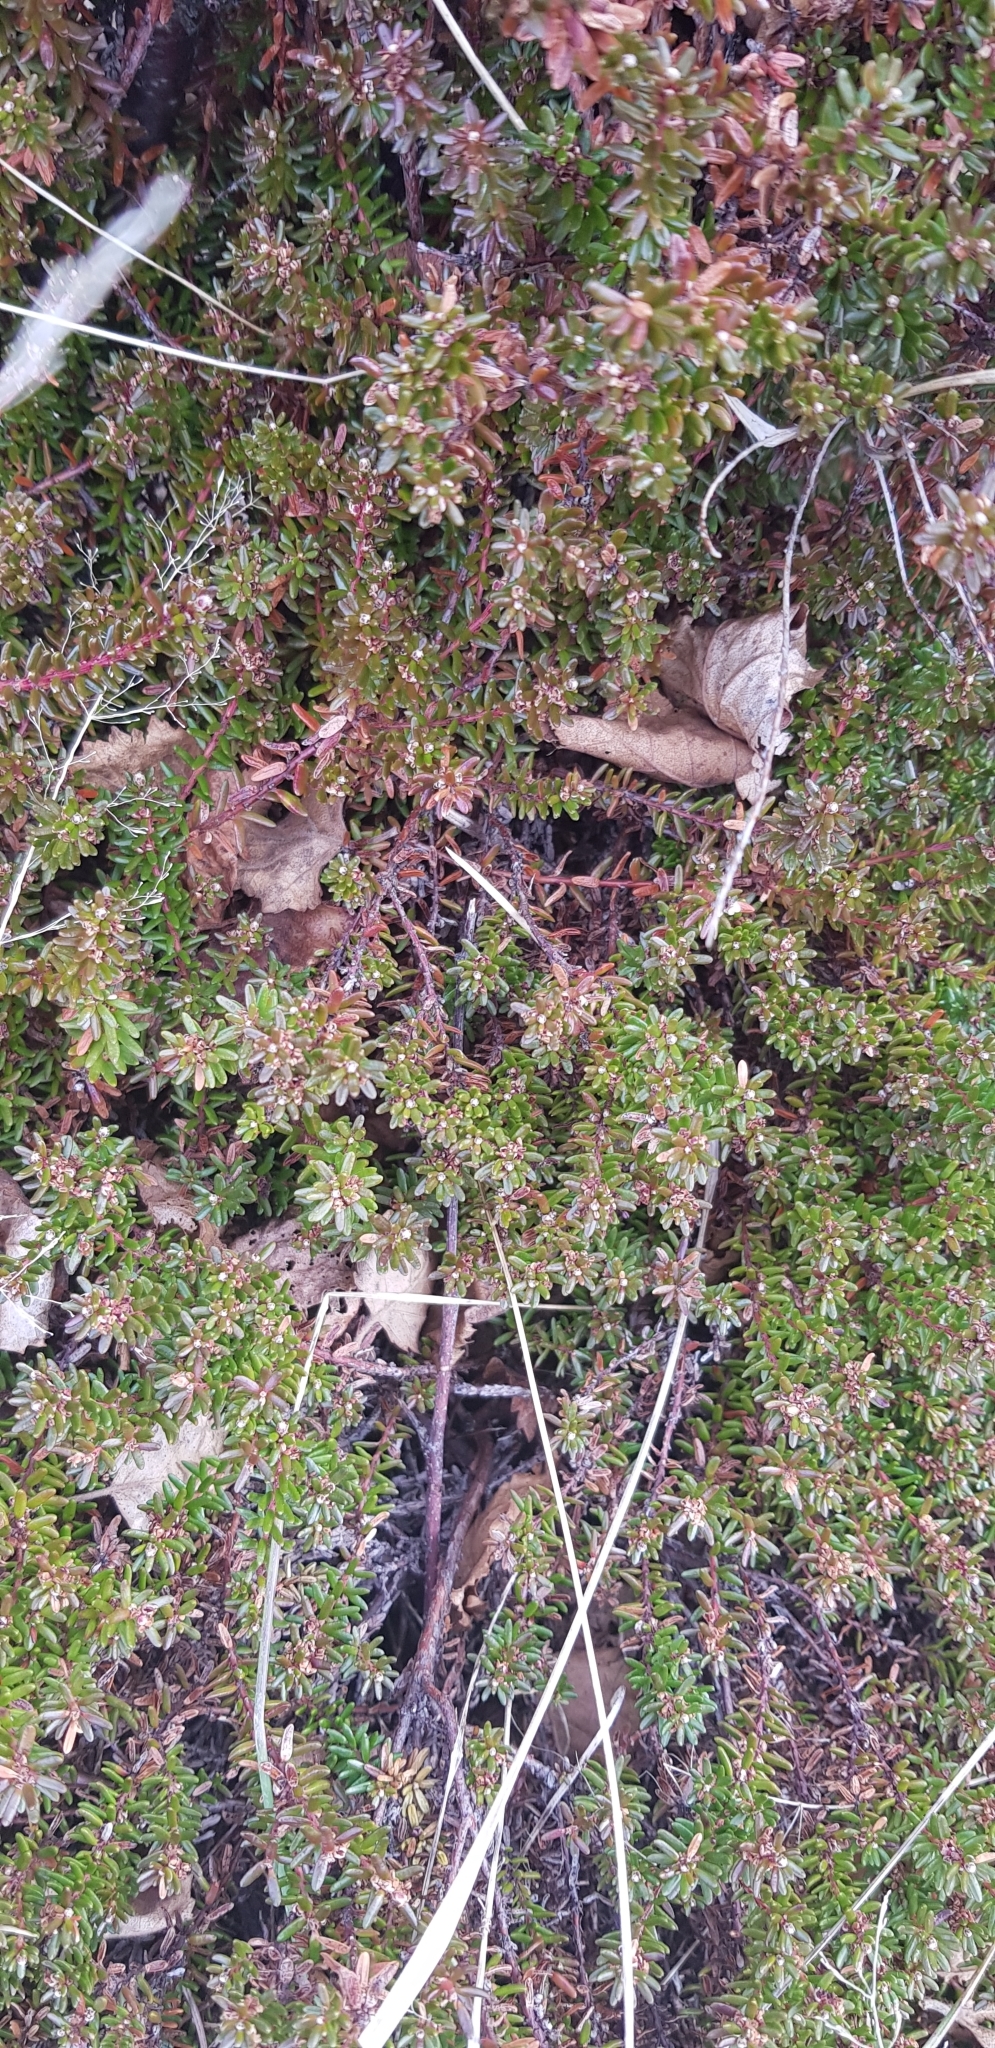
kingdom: Plantae
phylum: Tracheophyta
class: Magnoliopsida
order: Ericales
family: Ericaceae
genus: Empetrum
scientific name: Empetrum nigrum
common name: Black crowberry
